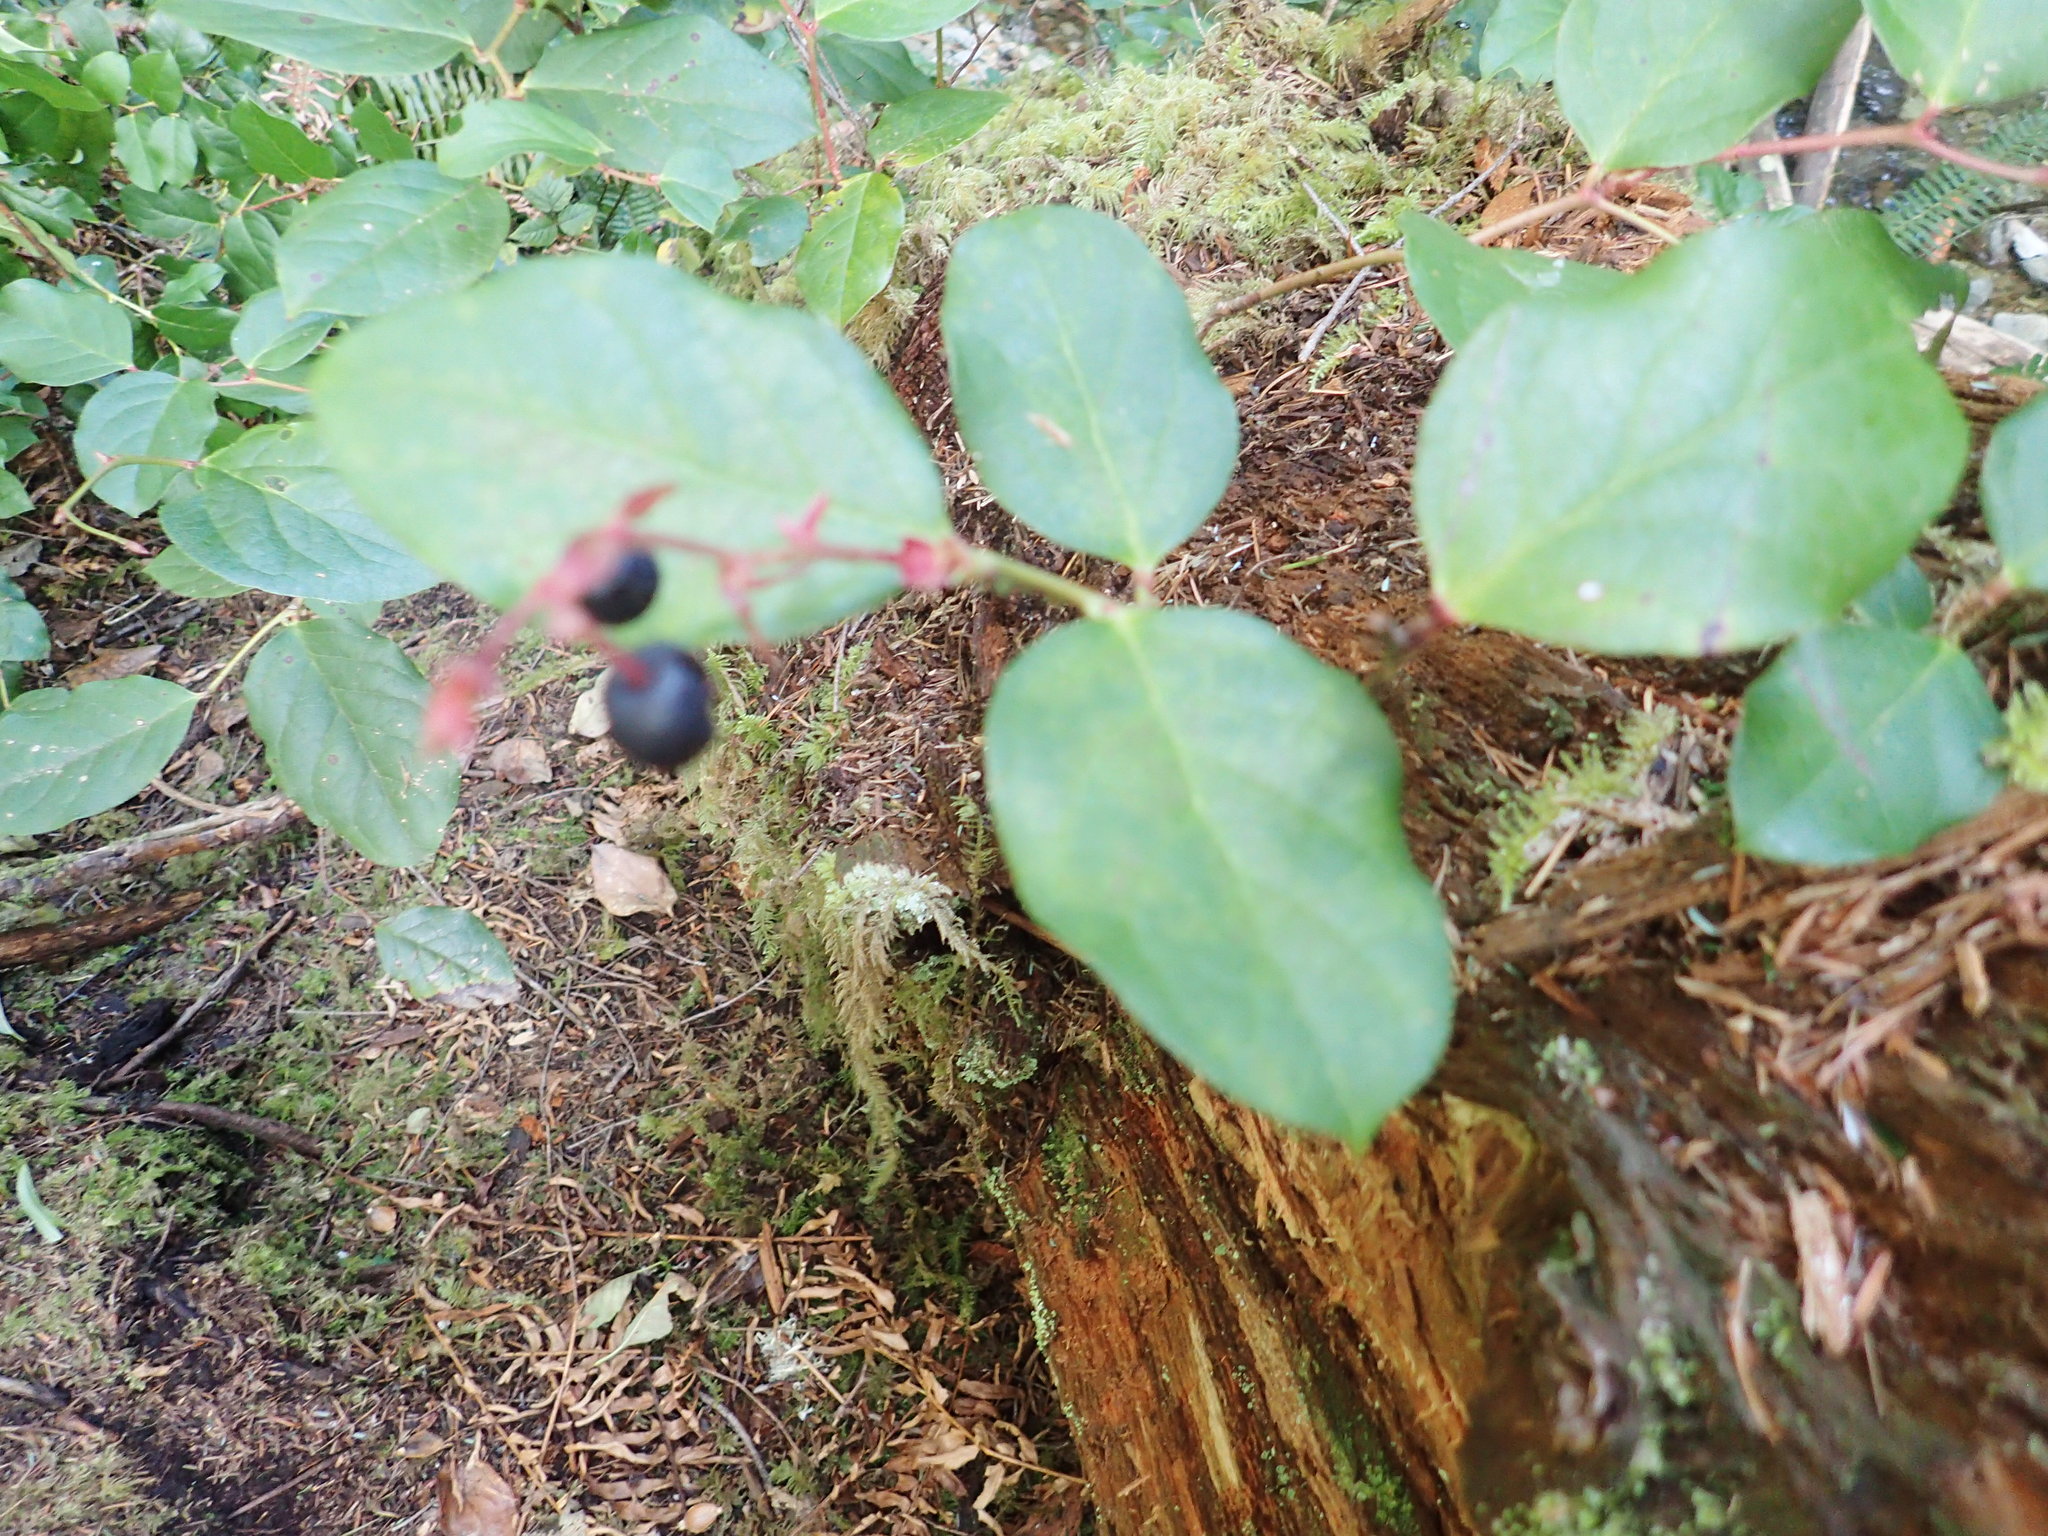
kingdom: Plantae
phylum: Tracheophyta
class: Magnoliopsida
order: Ericales
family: Ericaceae
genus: Gaultheria
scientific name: Gaultheria shallon
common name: Shallon
